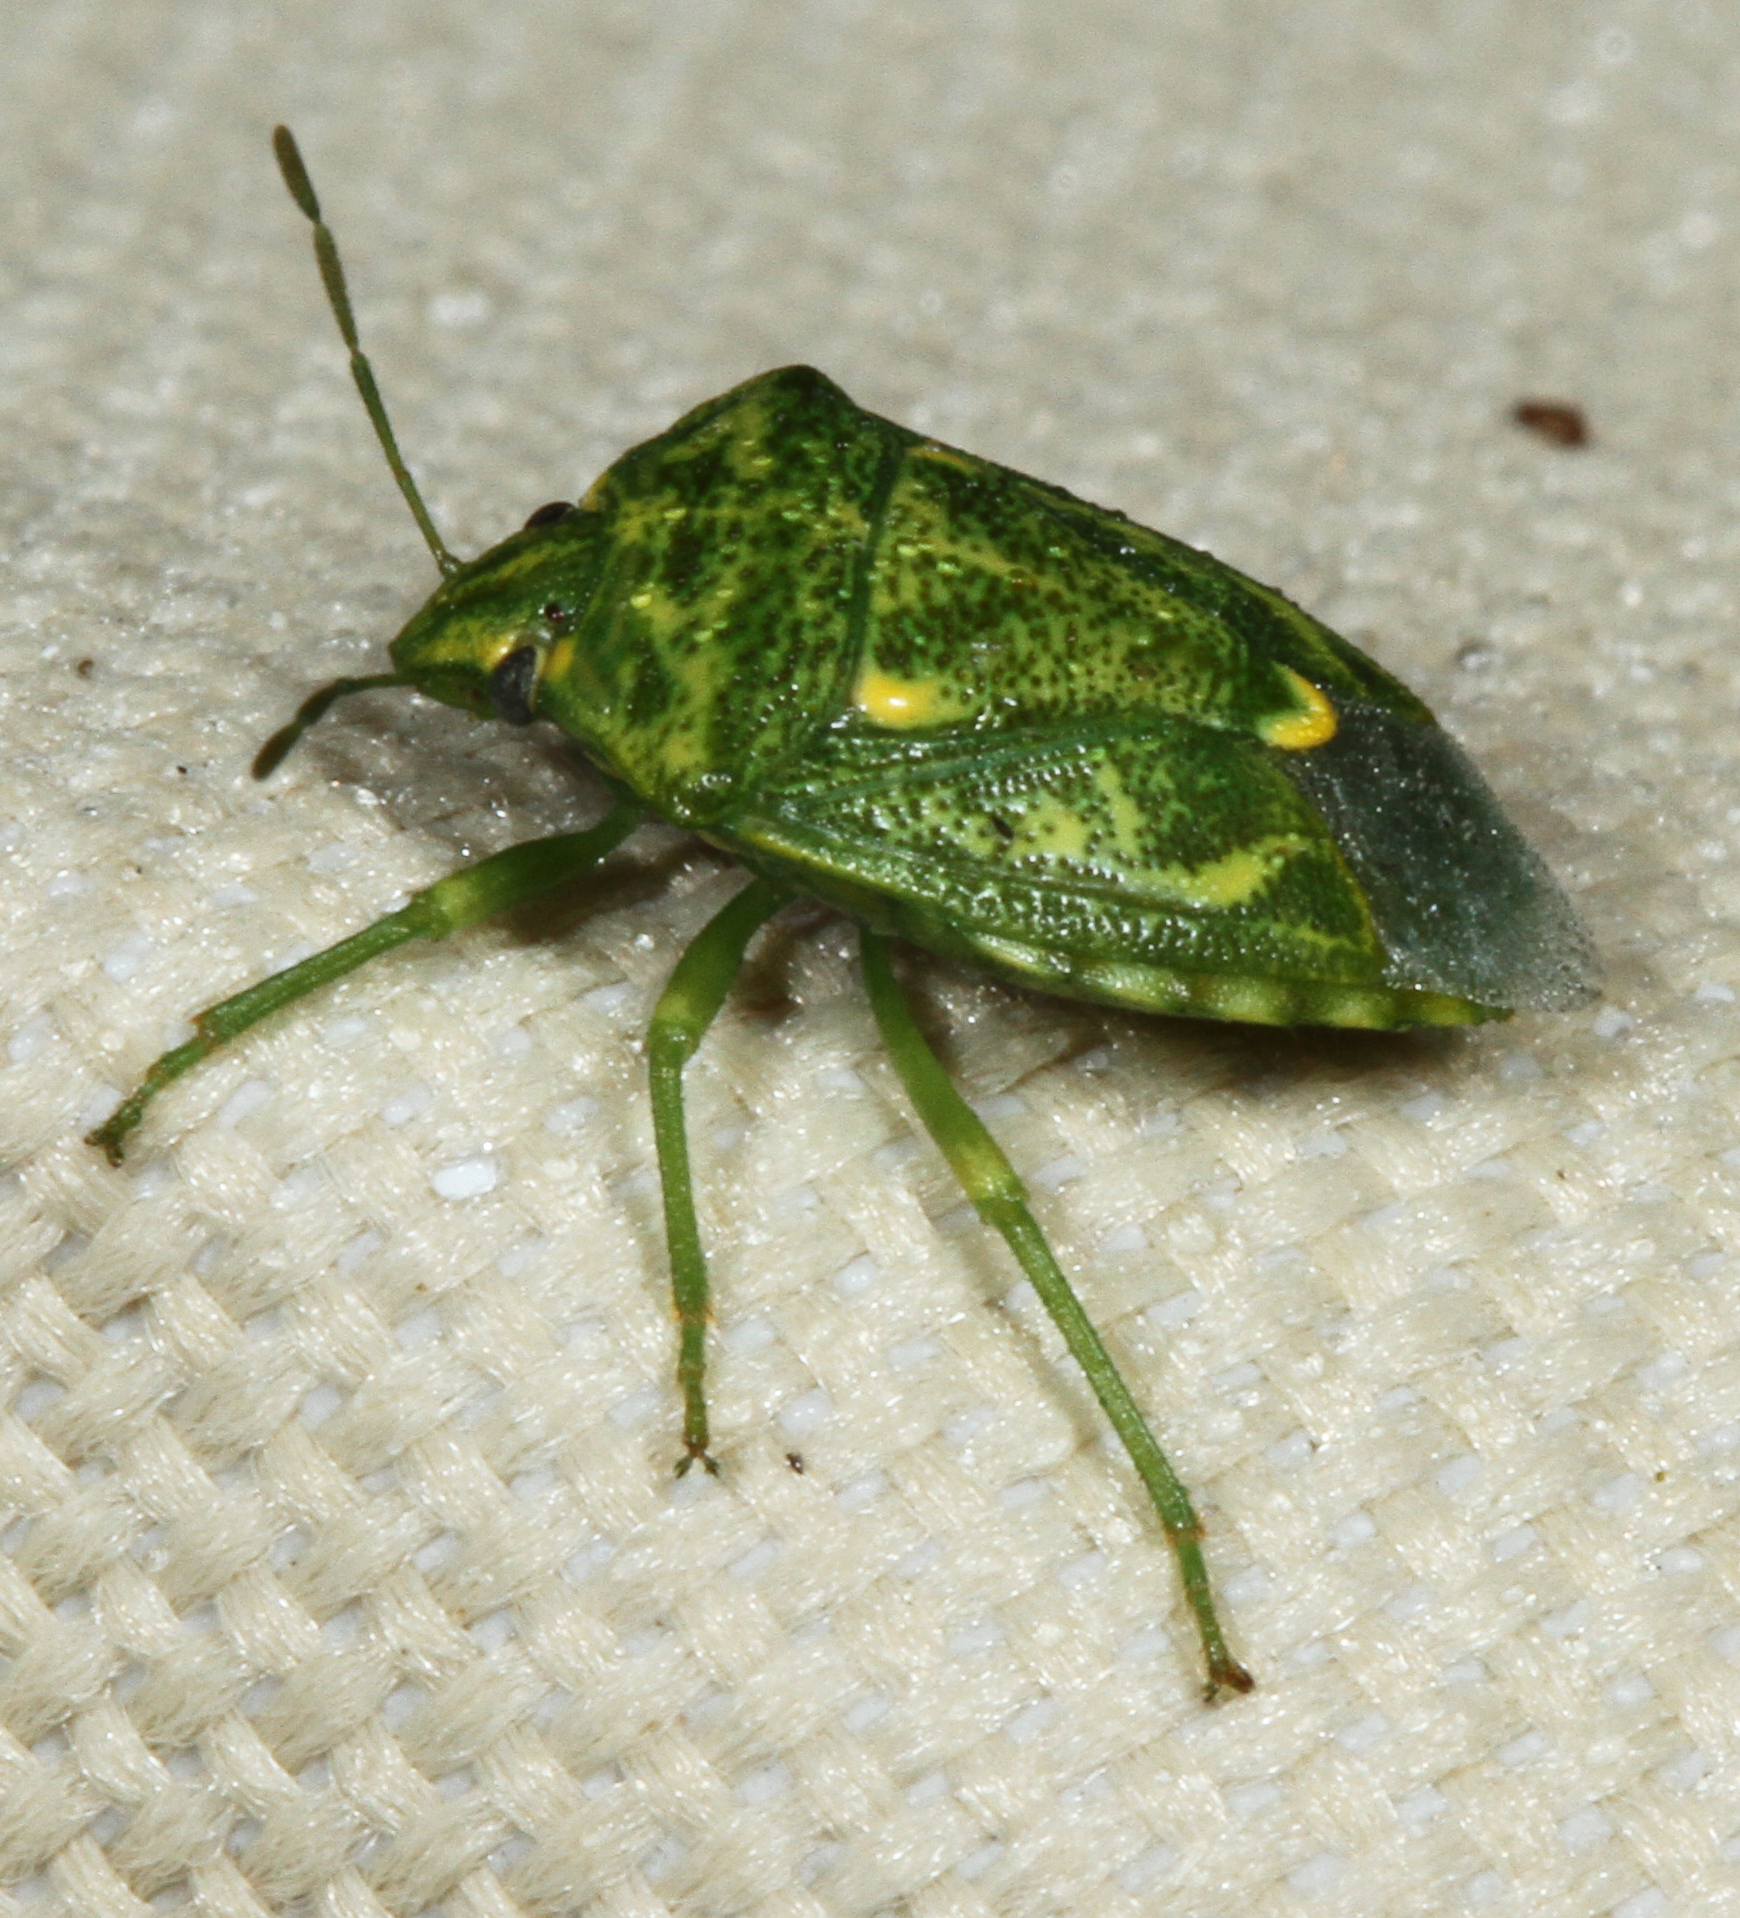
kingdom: Animalia
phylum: Arthropoda
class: Insecta
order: Hemiptera
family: Pentatomidae
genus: Banasa
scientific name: Banasa euchlora
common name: Cedar berry bug
